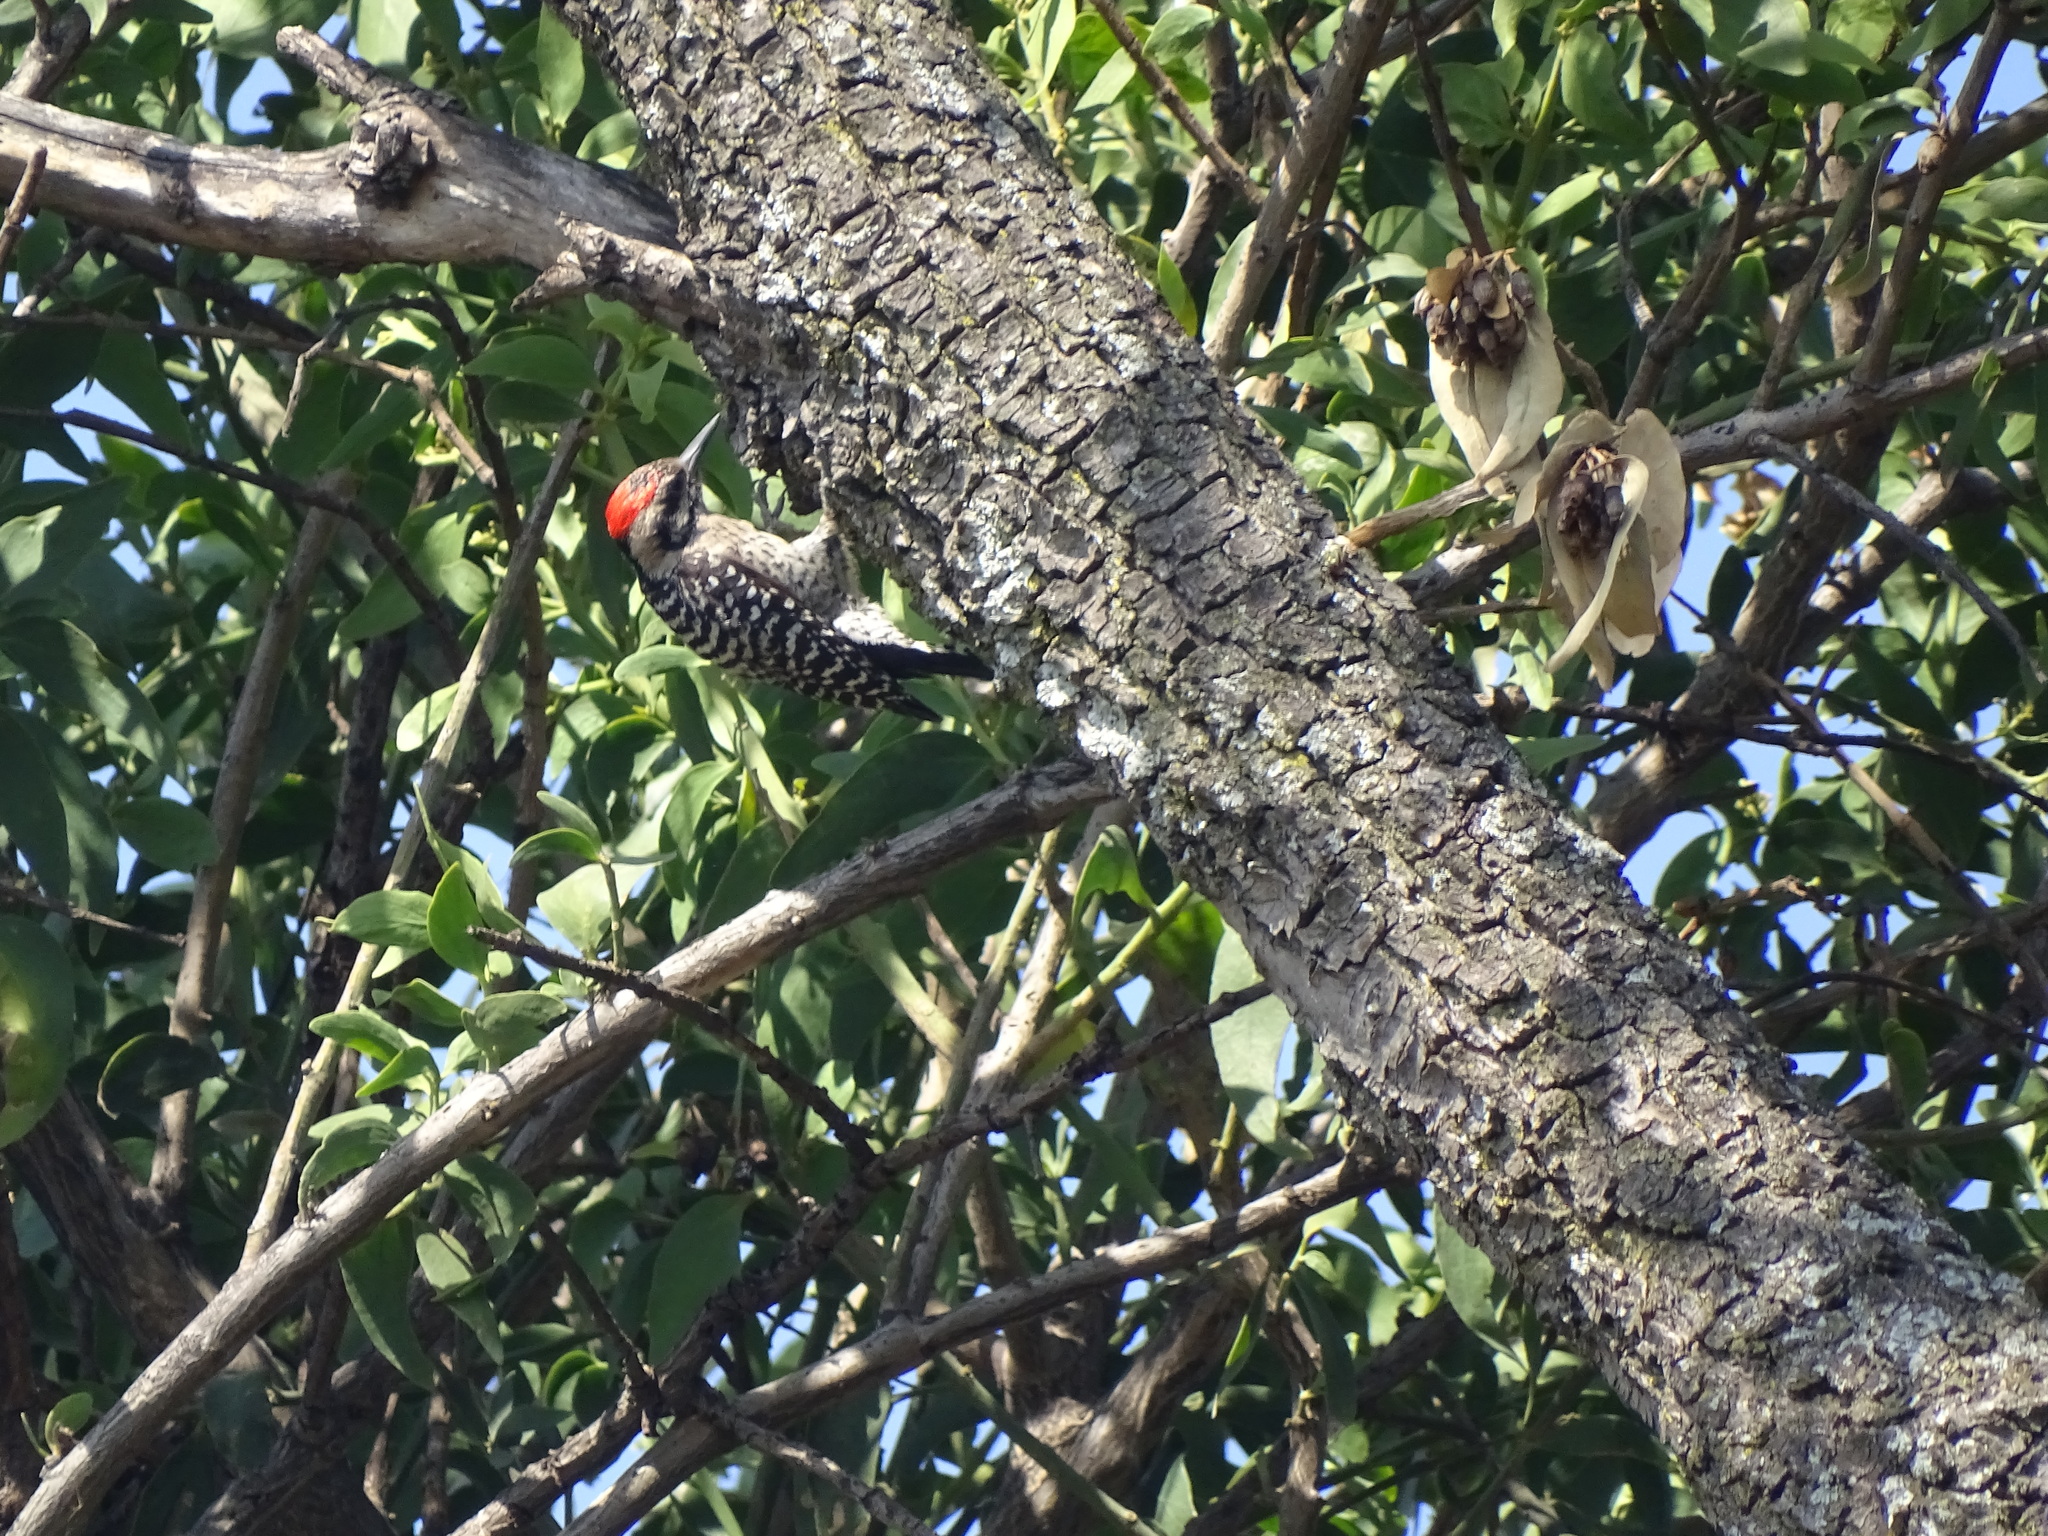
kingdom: Animalia
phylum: Chordata
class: Aves
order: Piciformes
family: Picidae
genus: Dryobates
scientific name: Dryobates scalaris
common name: Ladder-backed woodpecker
